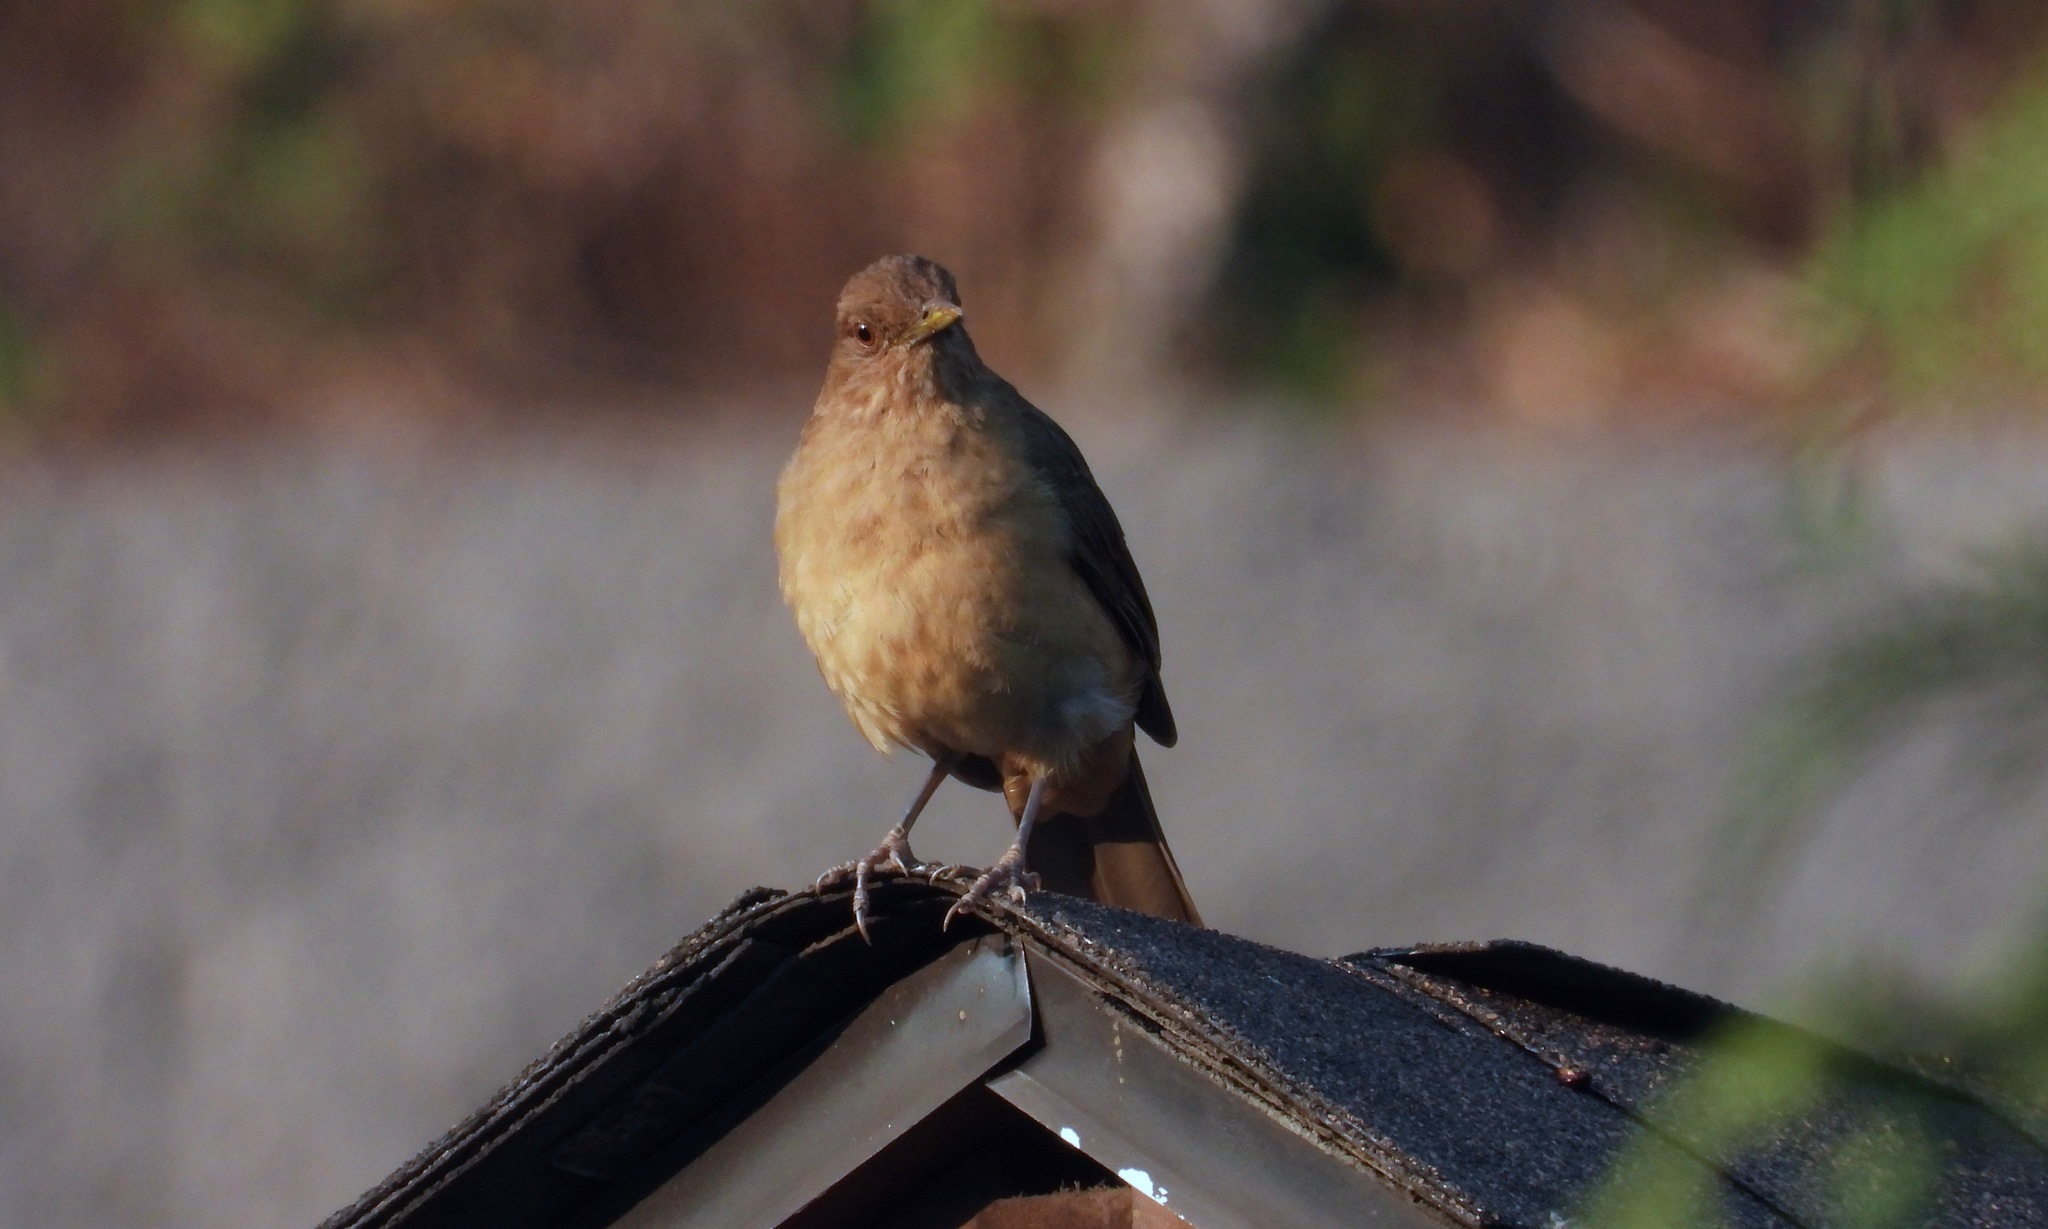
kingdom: Animalia
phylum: Chordata
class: Aves
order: Passeriformes
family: Turdidae
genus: Turdus
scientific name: Turdus grayi
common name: Clay-colored thrush
